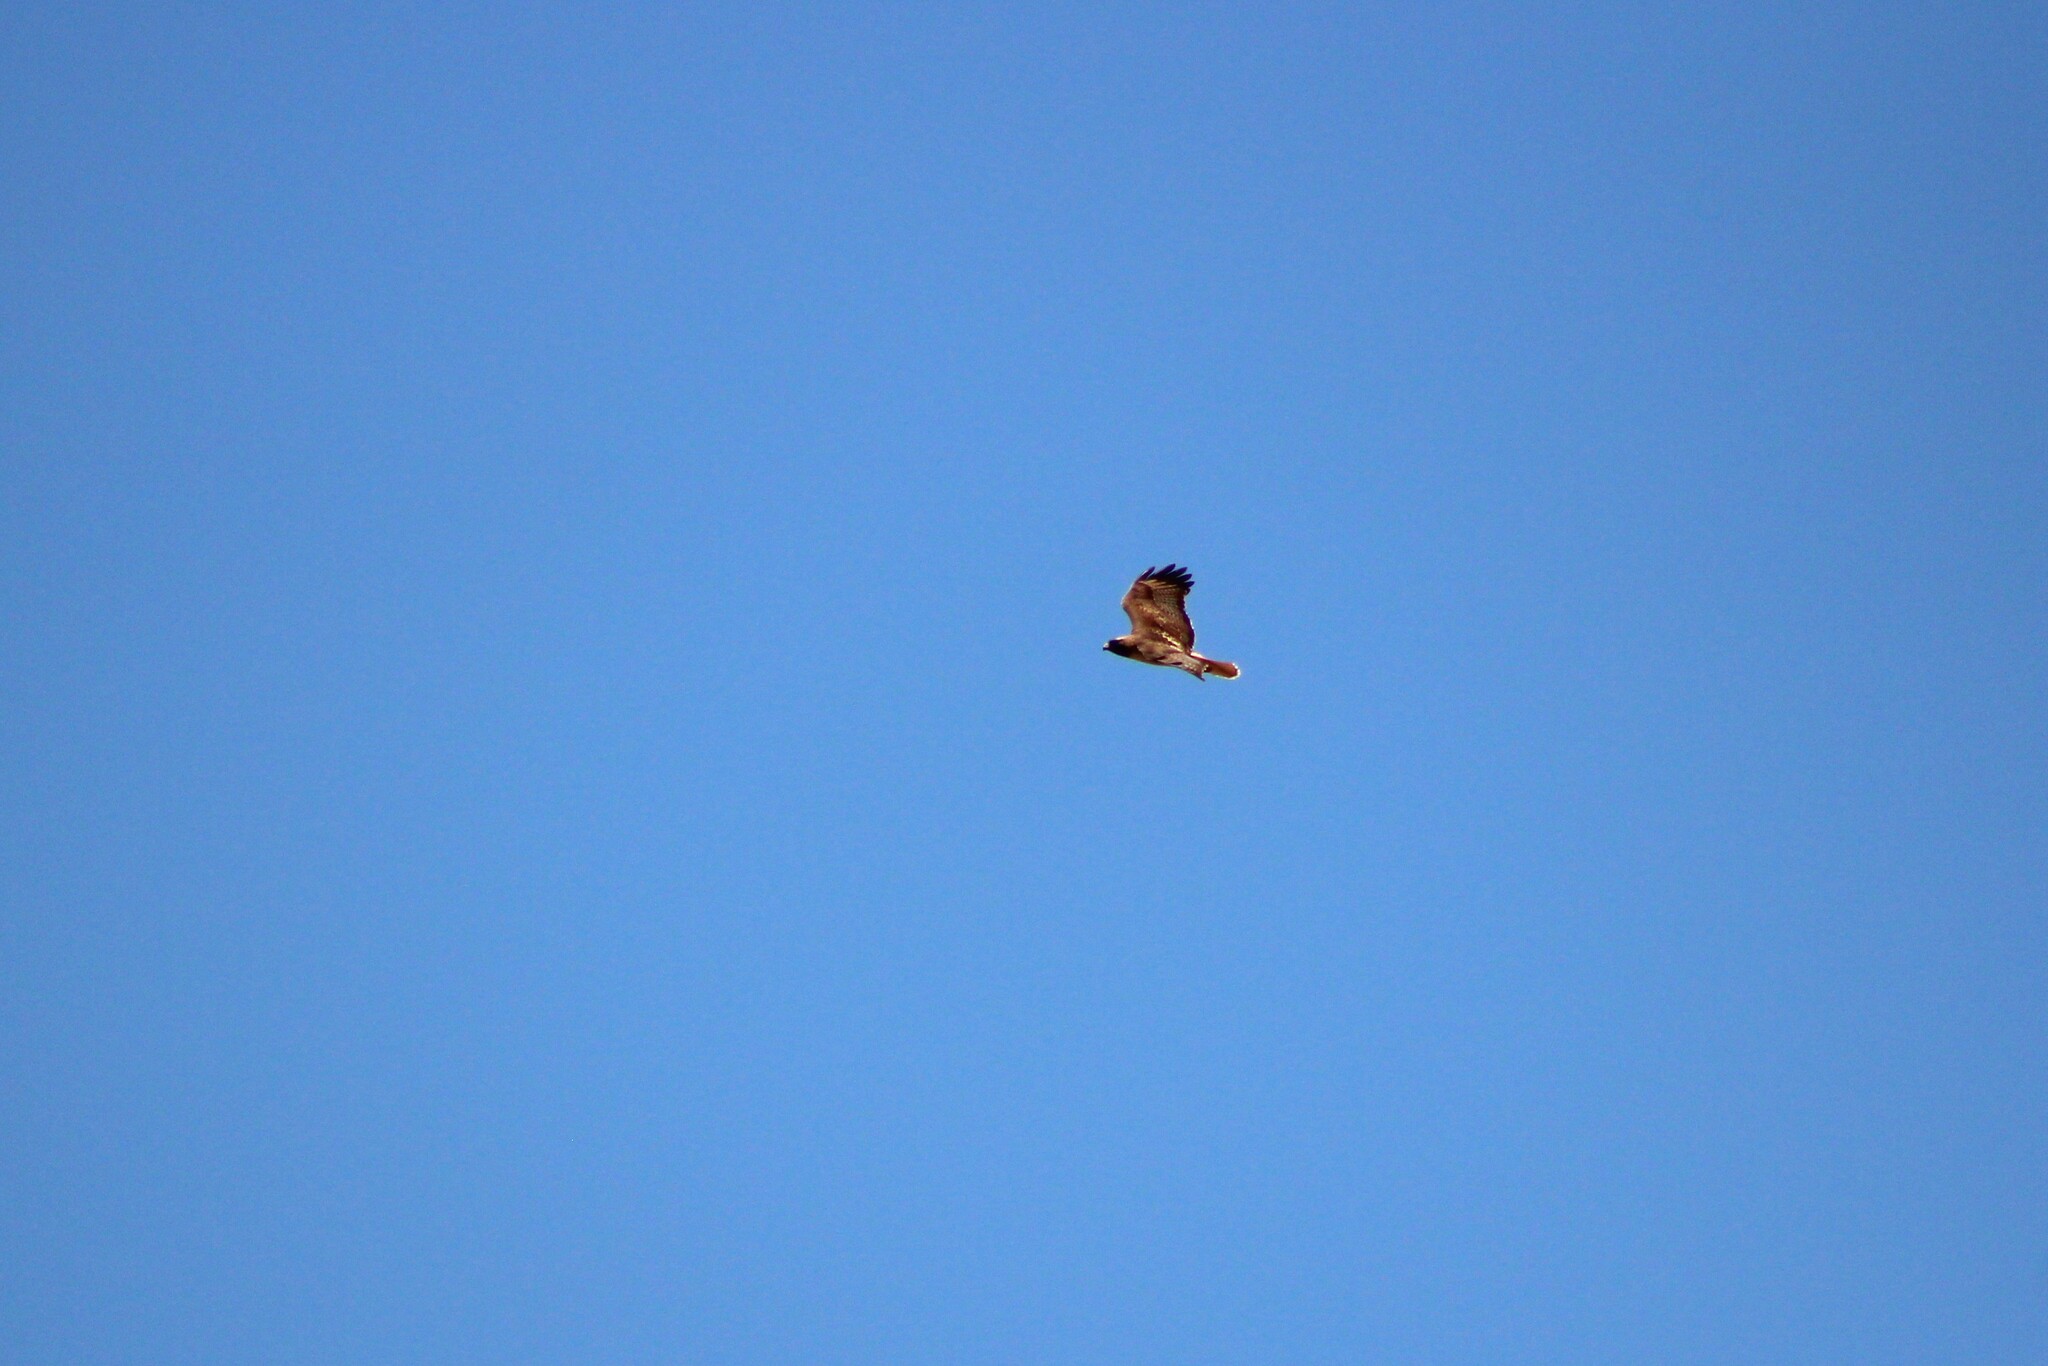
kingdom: Animalia
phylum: Chordata
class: Aves
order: Accipitriformes
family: Accipitridae
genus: Buteo
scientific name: Buteo jamaicensis
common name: Red-tailed hawk
